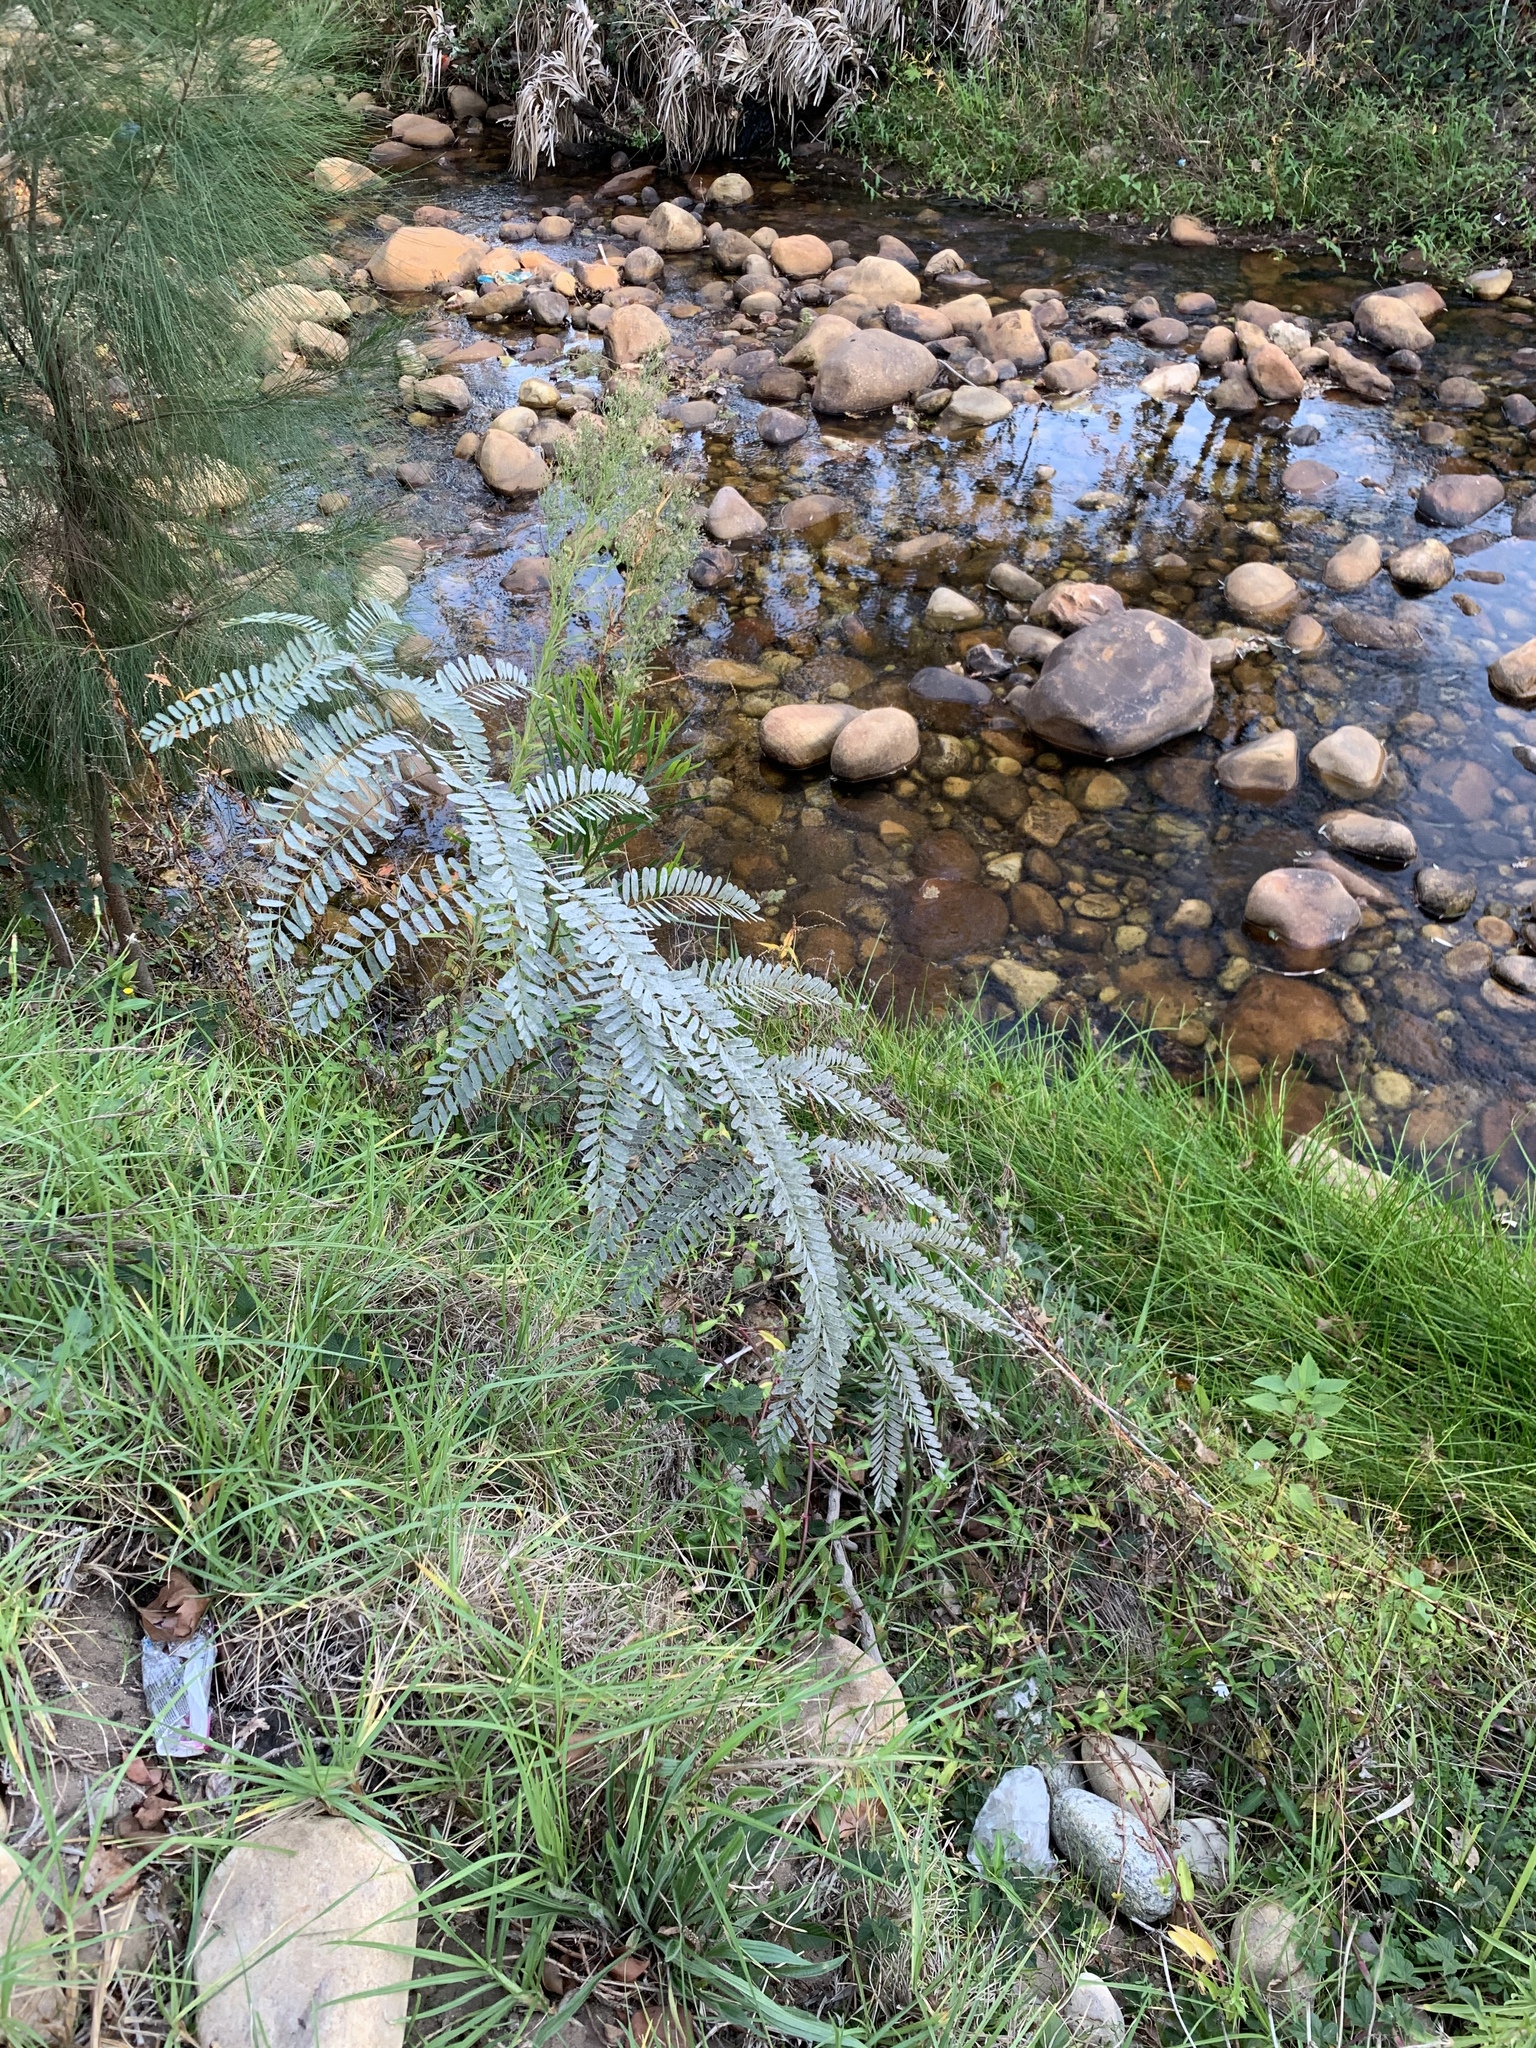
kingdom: Plantae
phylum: Tracheophyta
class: Magnoliopsida
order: Fabales
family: Fabaceae
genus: Sesbania
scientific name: Sesbania punicea
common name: Rattlebox
